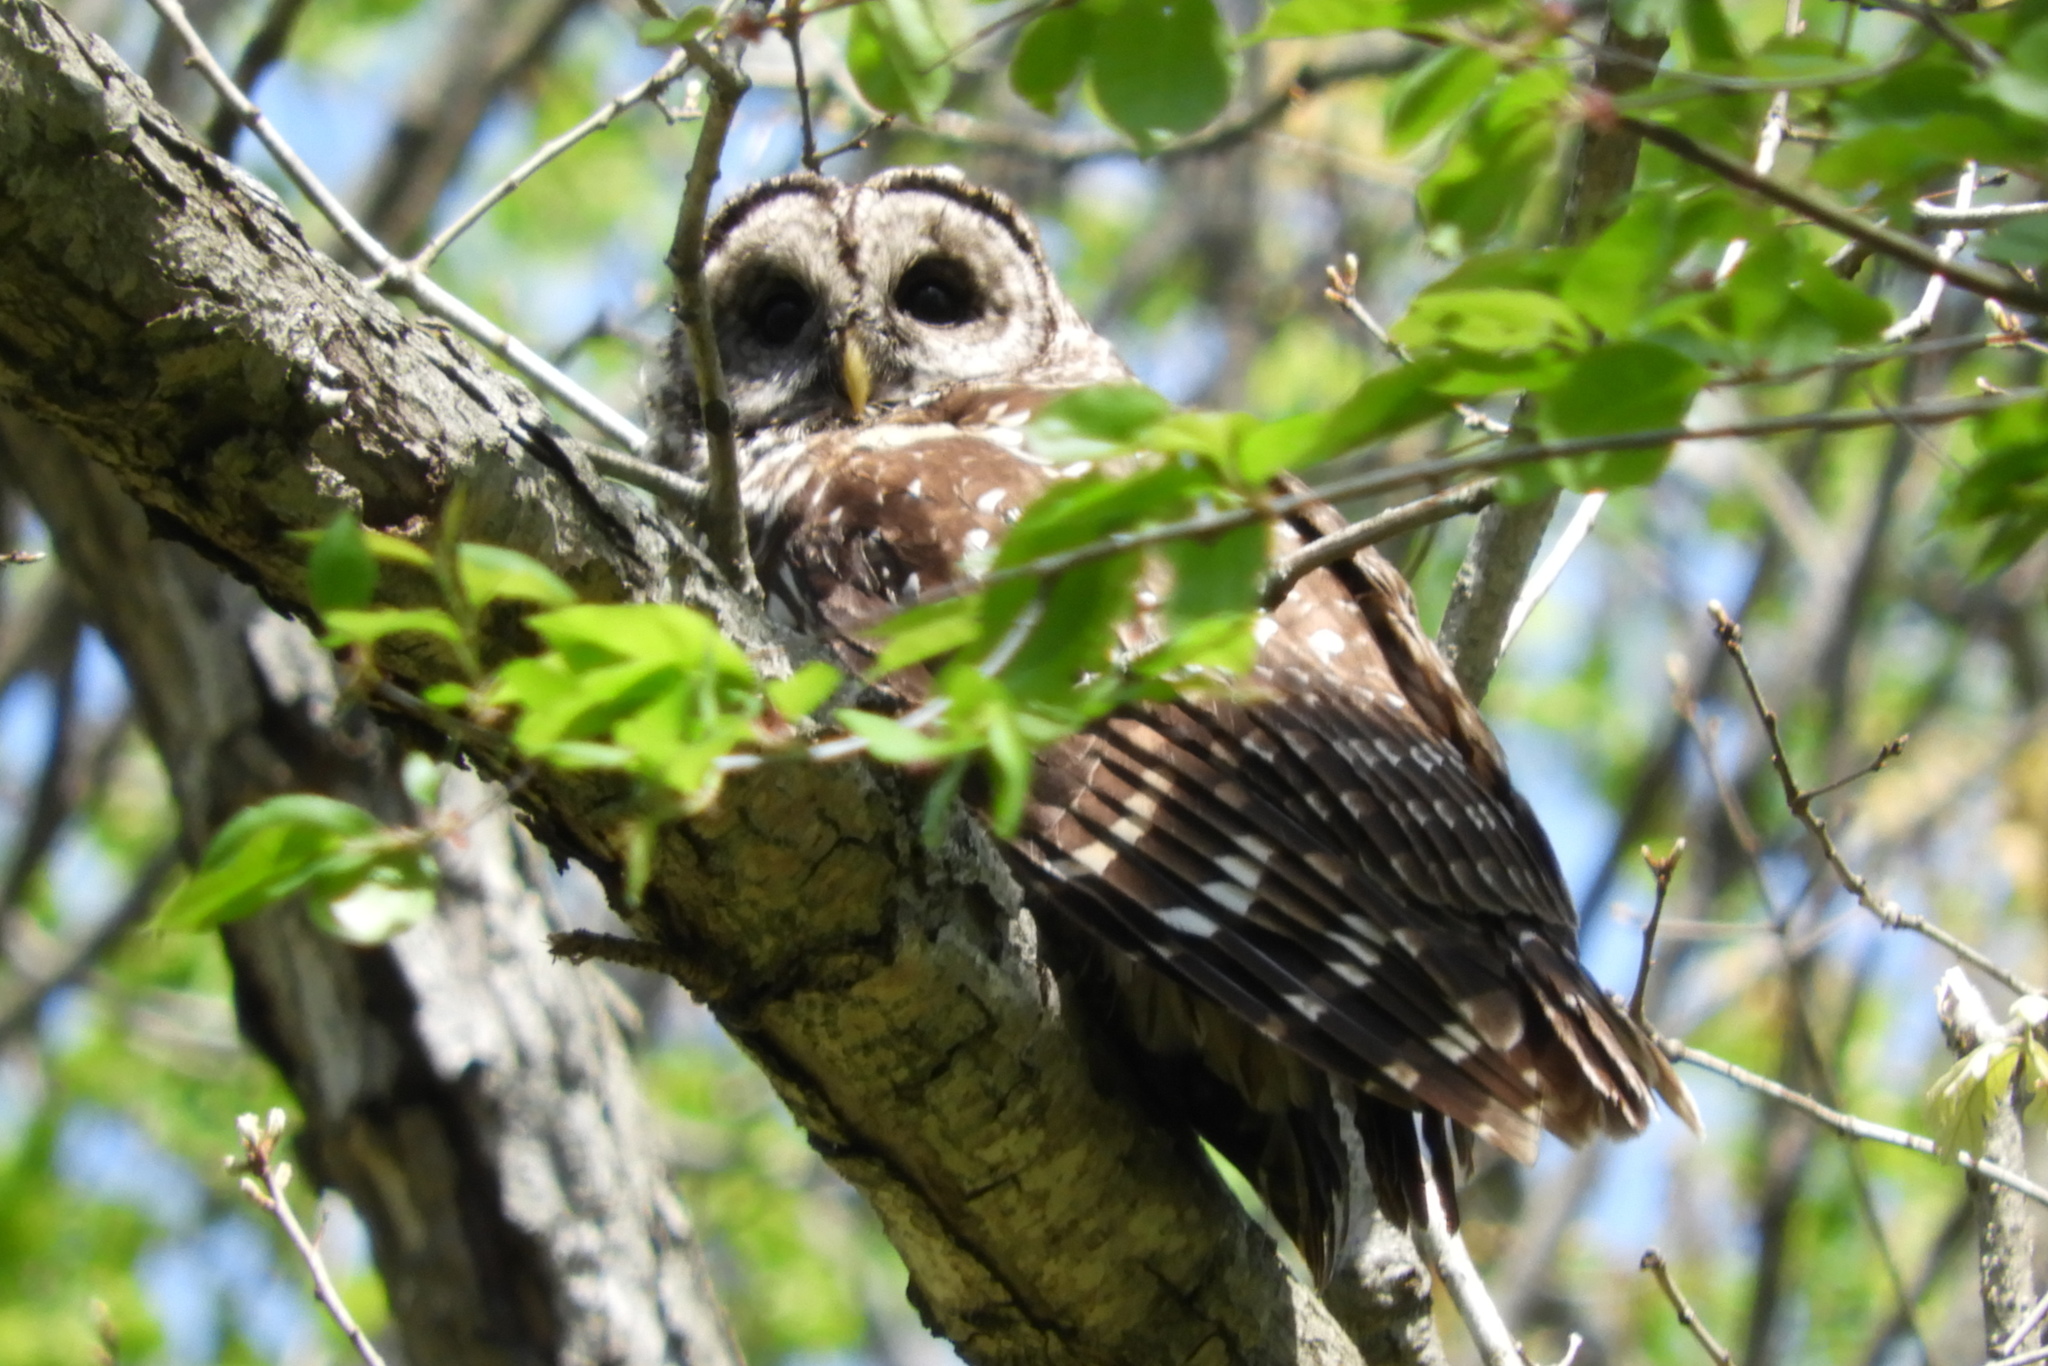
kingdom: Animalia
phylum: Chordata
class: Aves
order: Strigiformes
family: Strigidae
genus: Strix
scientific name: Strix varia
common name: Barred owl
